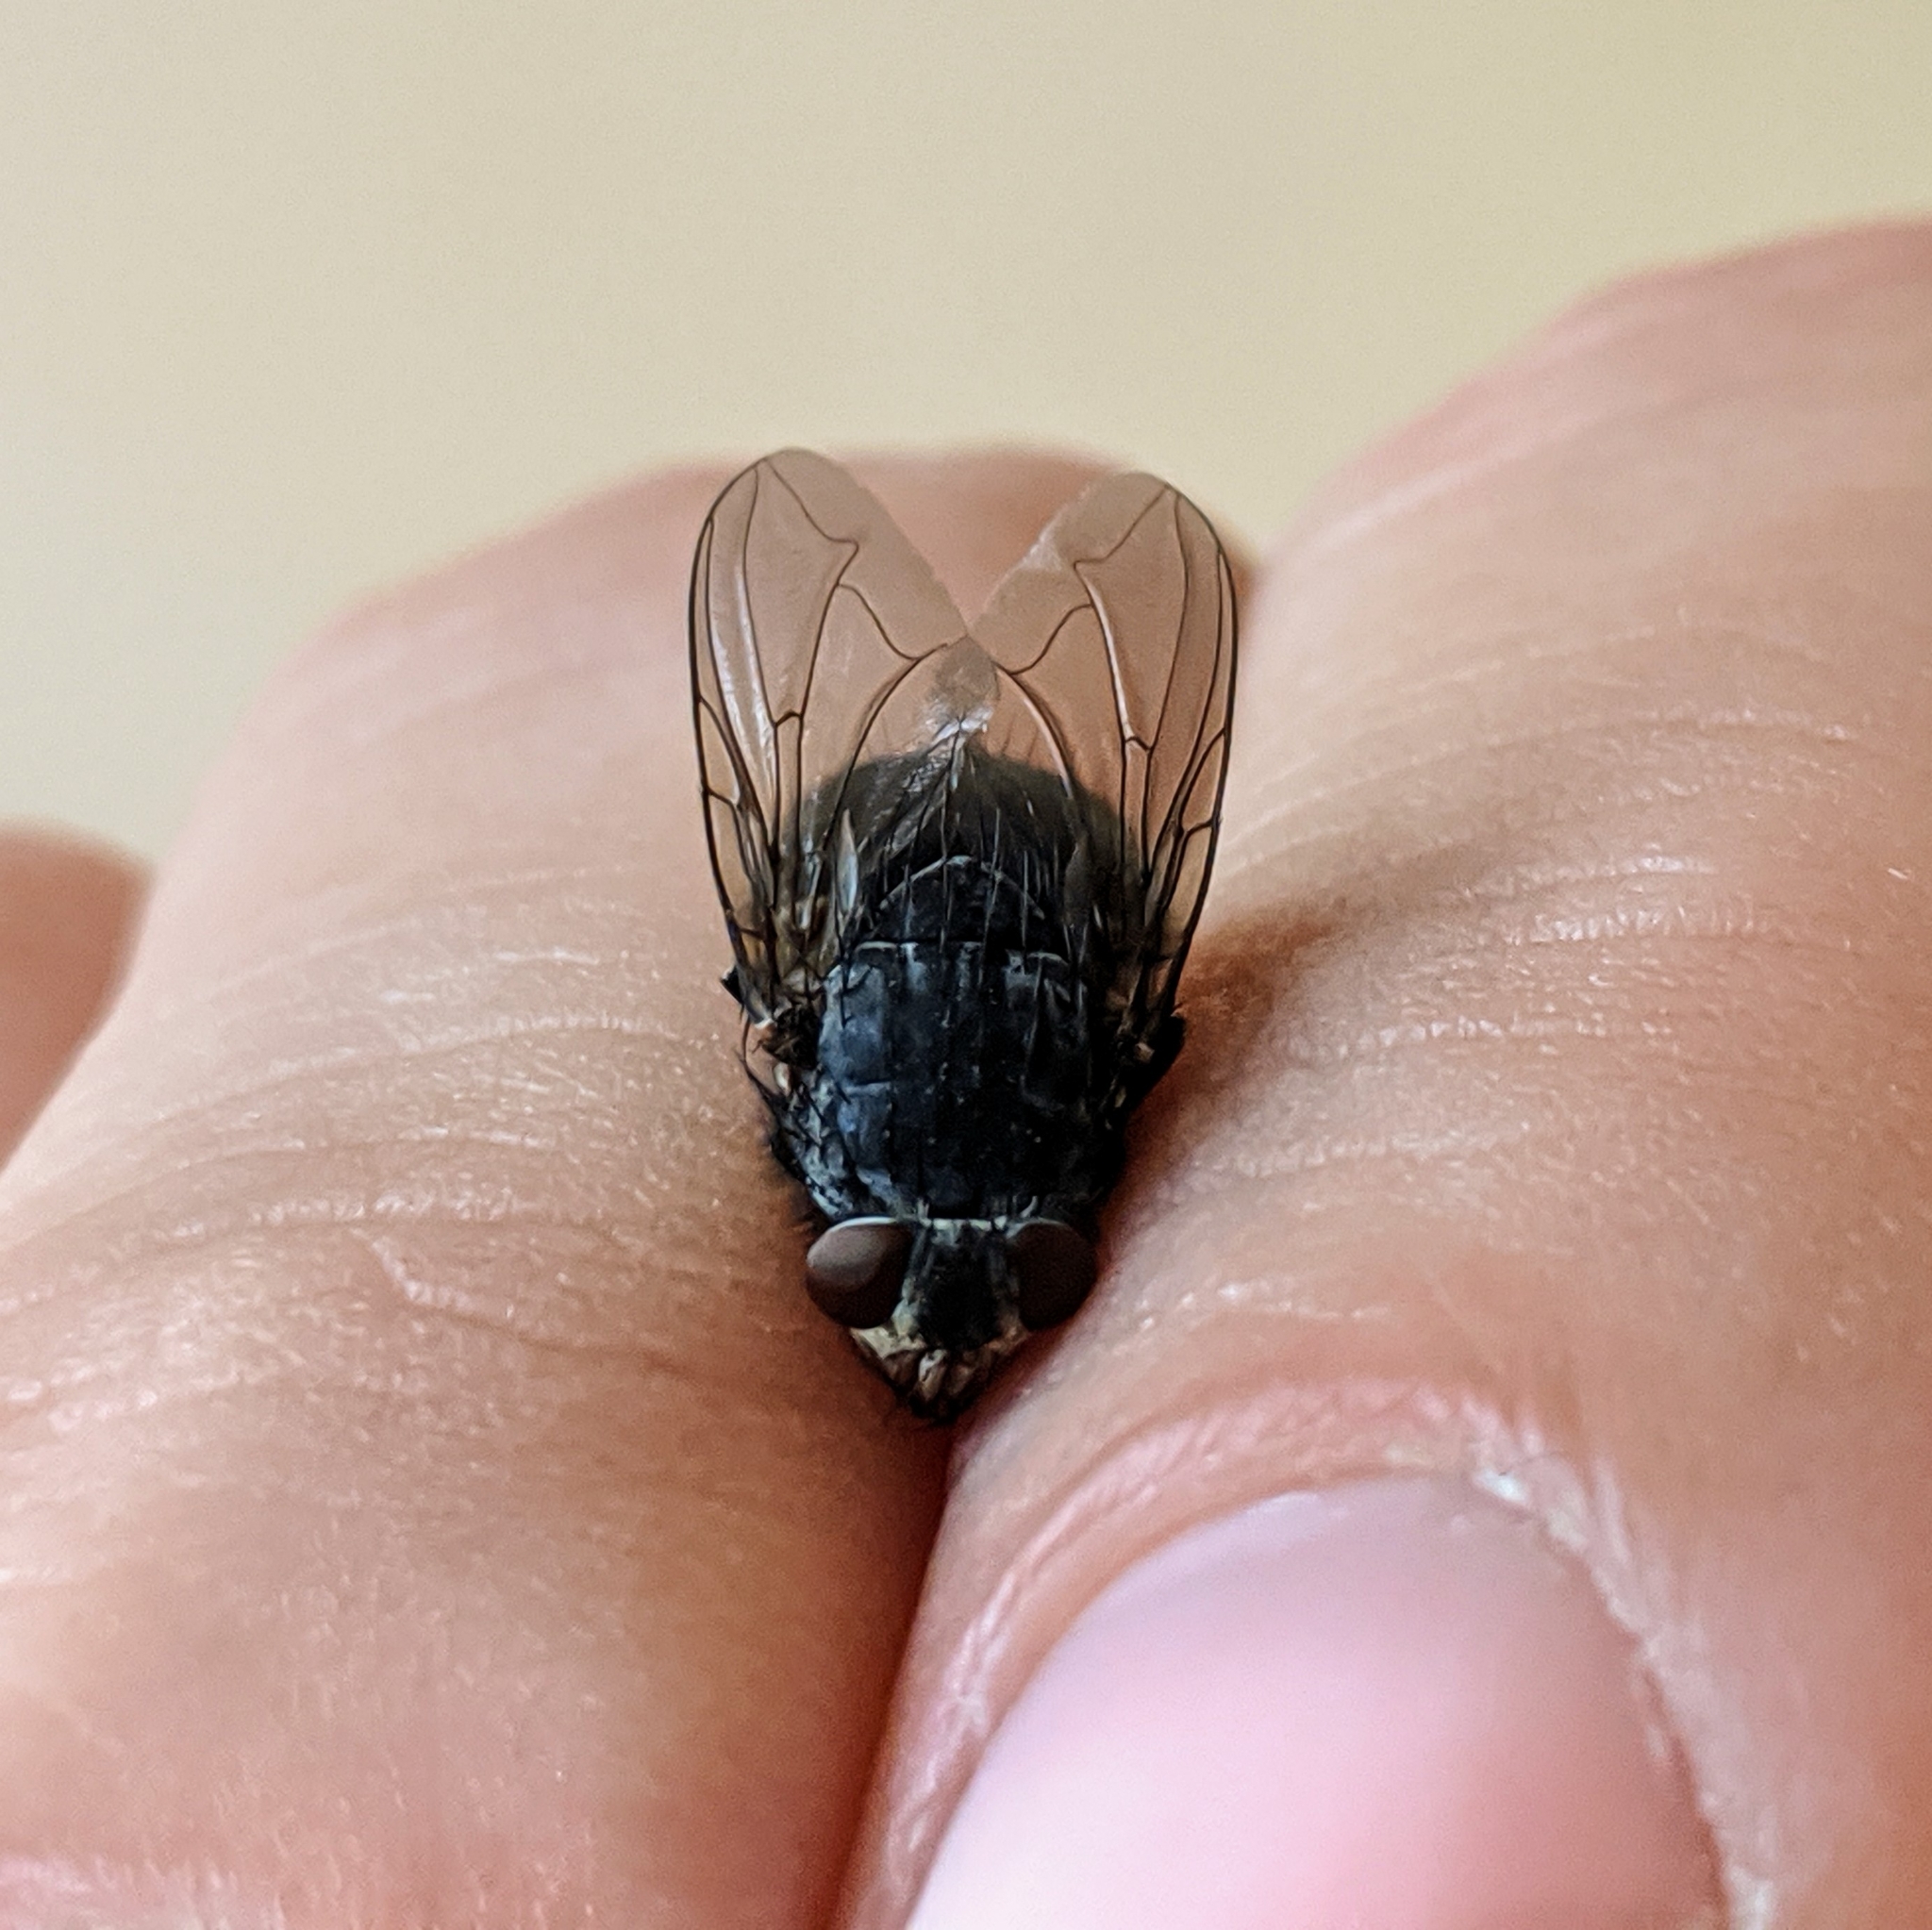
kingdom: Animalia
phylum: Arthropoda
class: Insecta
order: Diptera
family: Calliphoridae
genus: Calliphora
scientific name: Calliphora vicina
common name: Common blow flie
